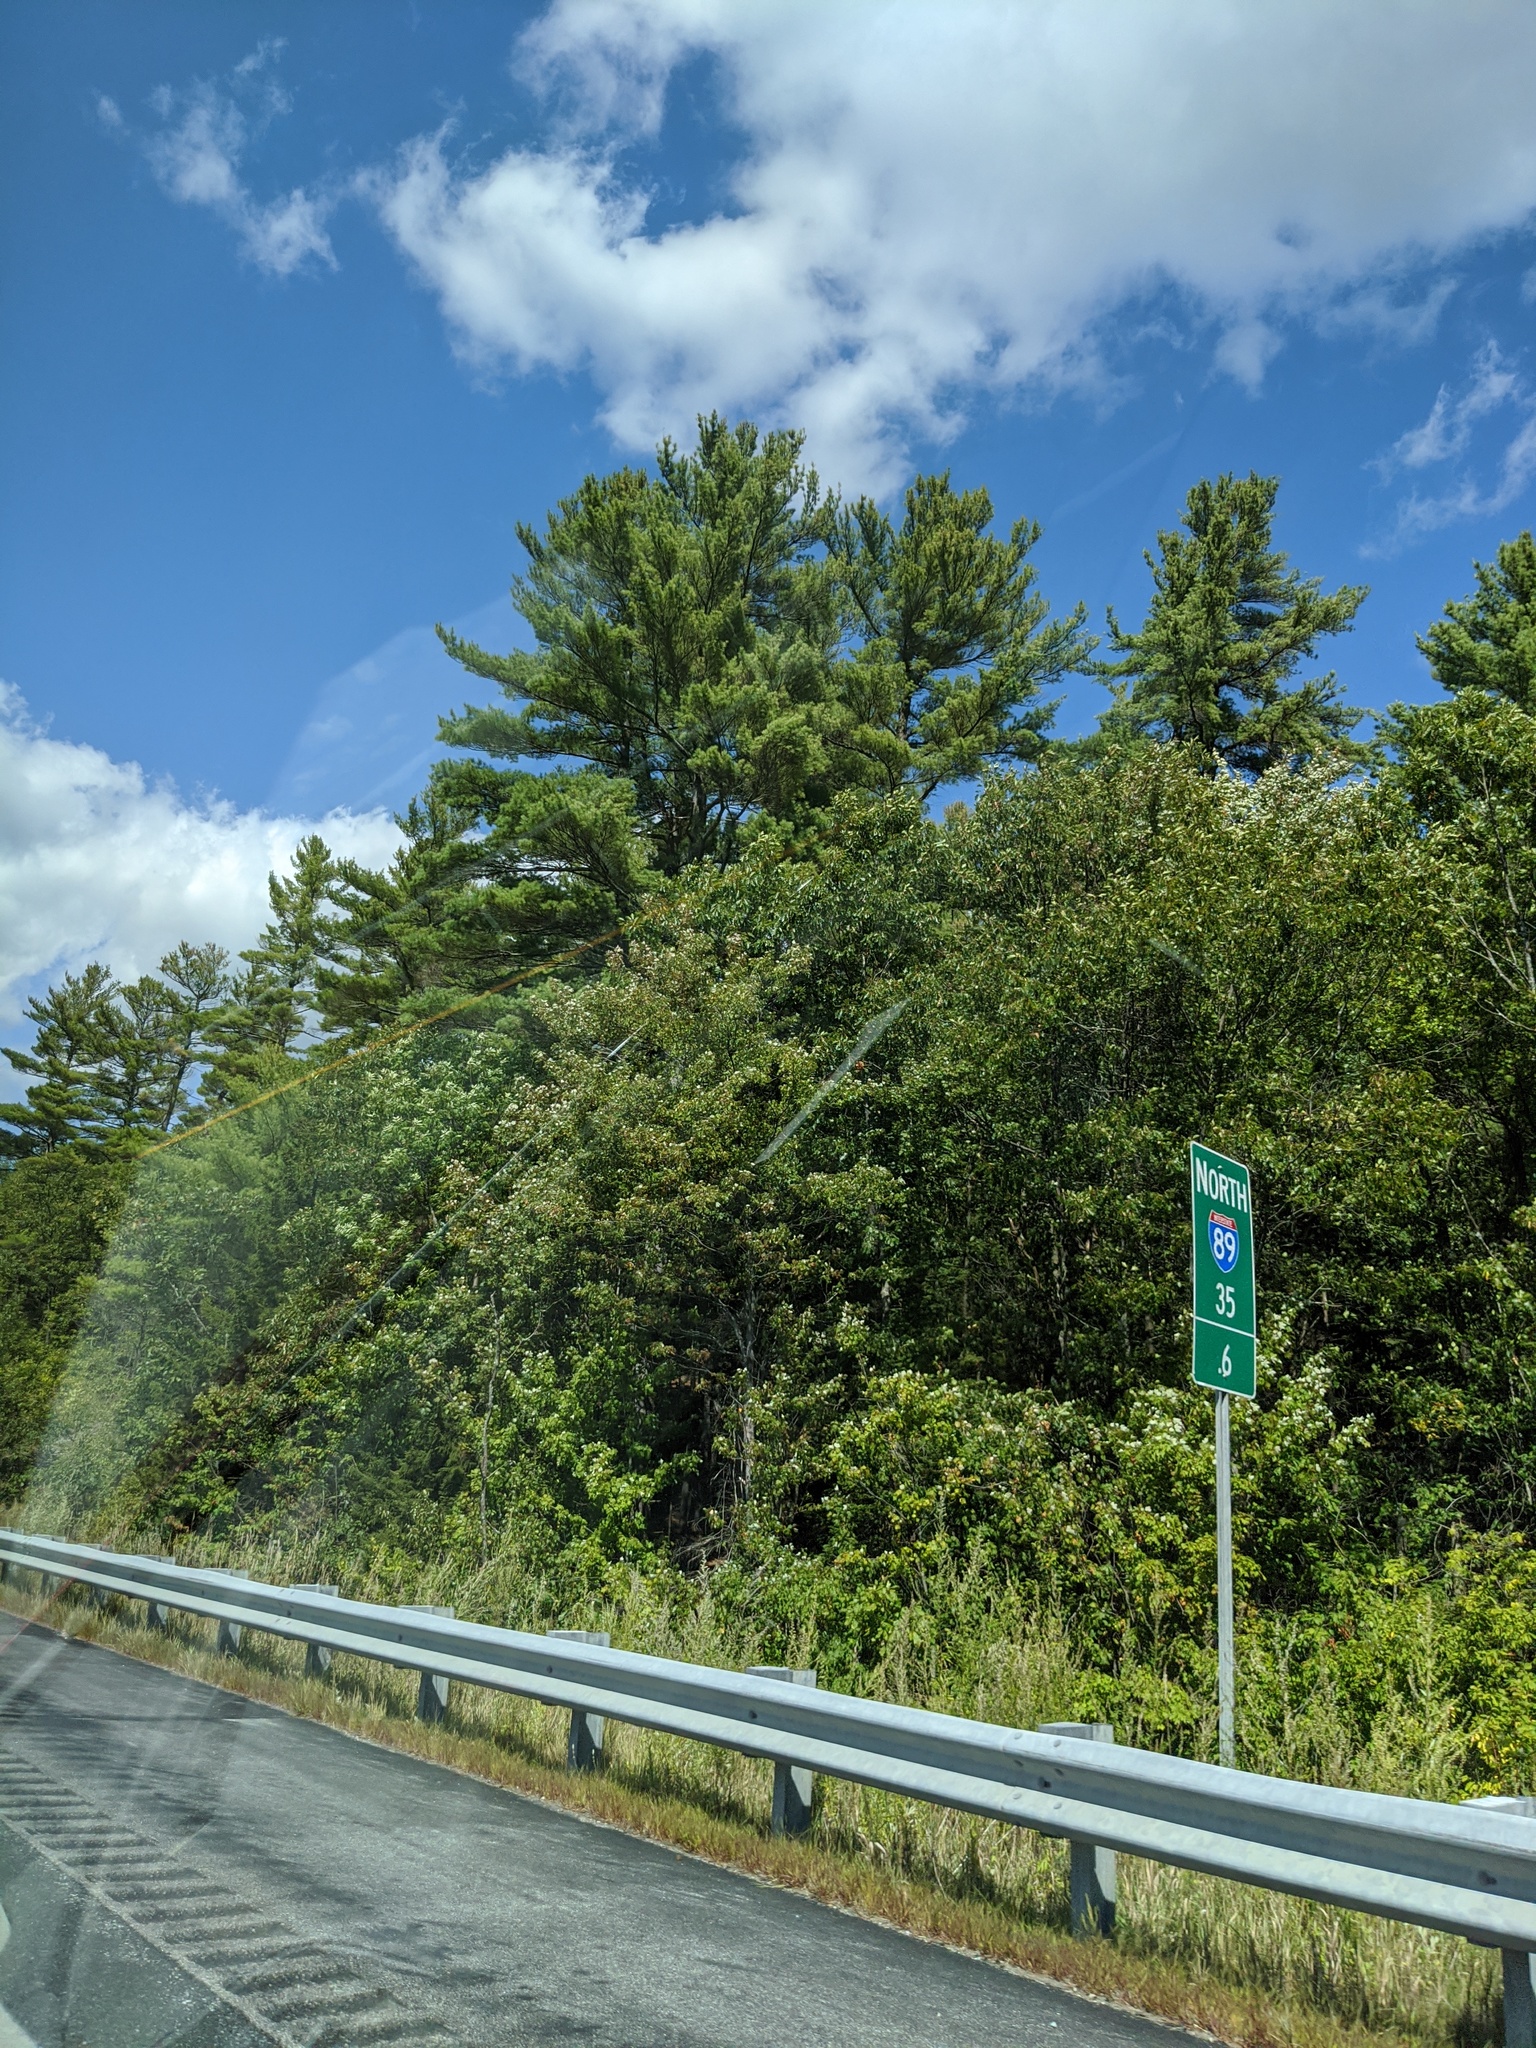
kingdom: Plantae
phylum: Tracheophyta
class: Pinopsida
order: Pinales
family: Pinaceae
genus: Pinus
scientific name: Pinus strobus
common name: Weymouth pine
